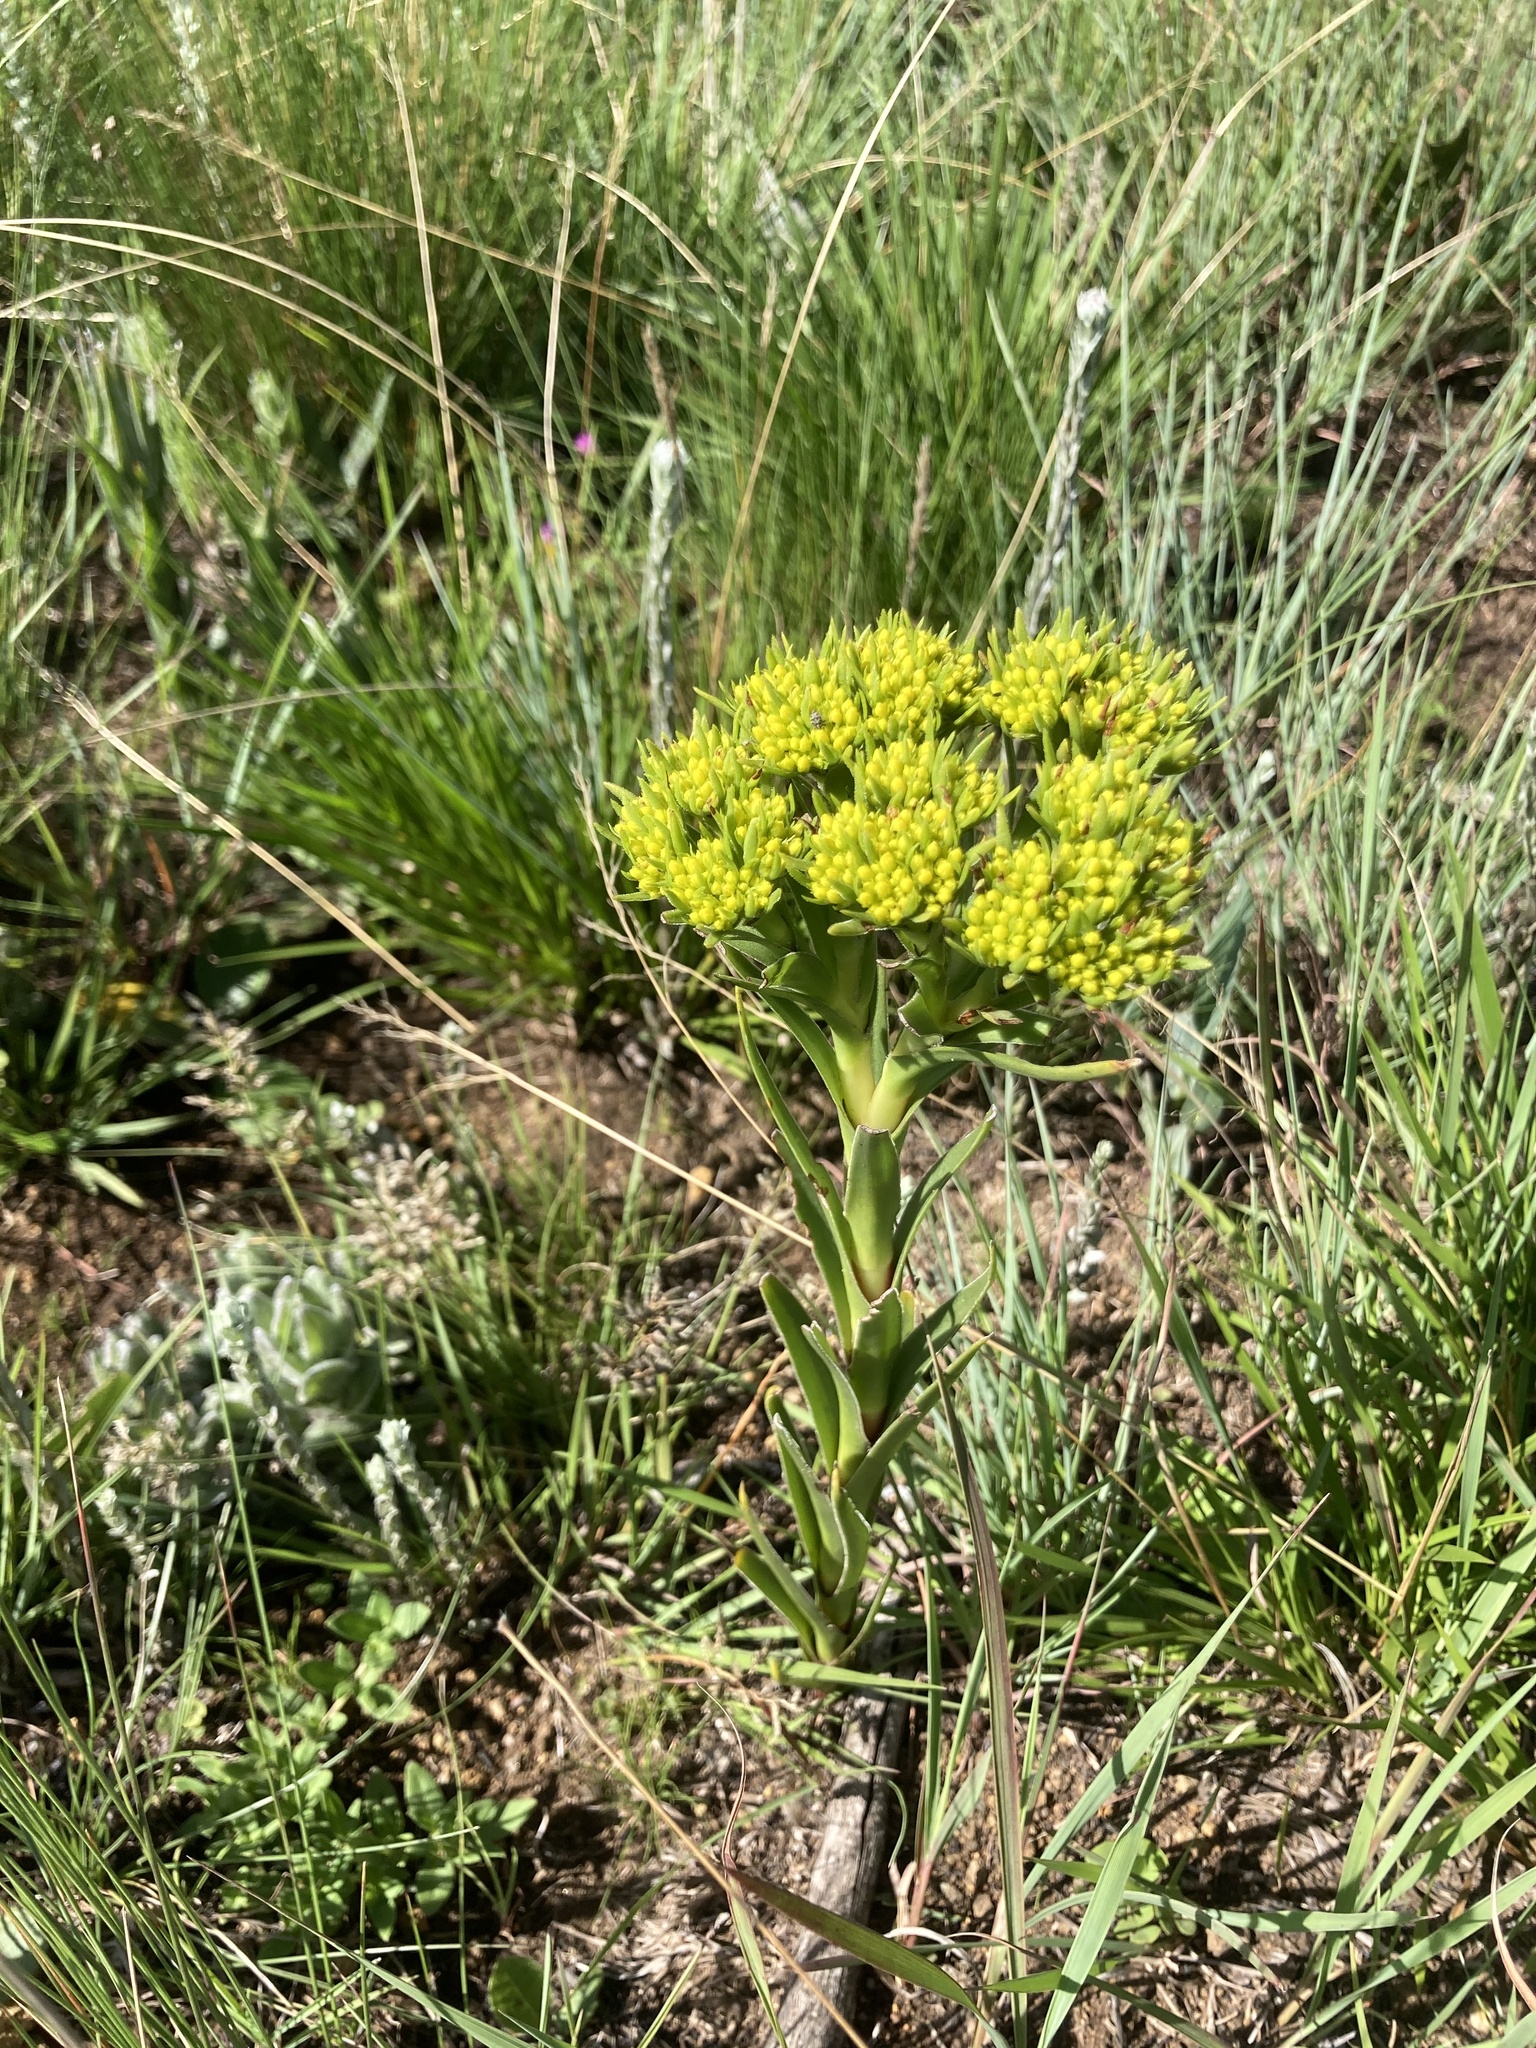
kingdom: Plantae
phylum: Tracheophyta
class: Magnoliopsida
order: Saxifragales
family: Crassulaceae
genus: Crassula
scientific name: Crassula vaginata
